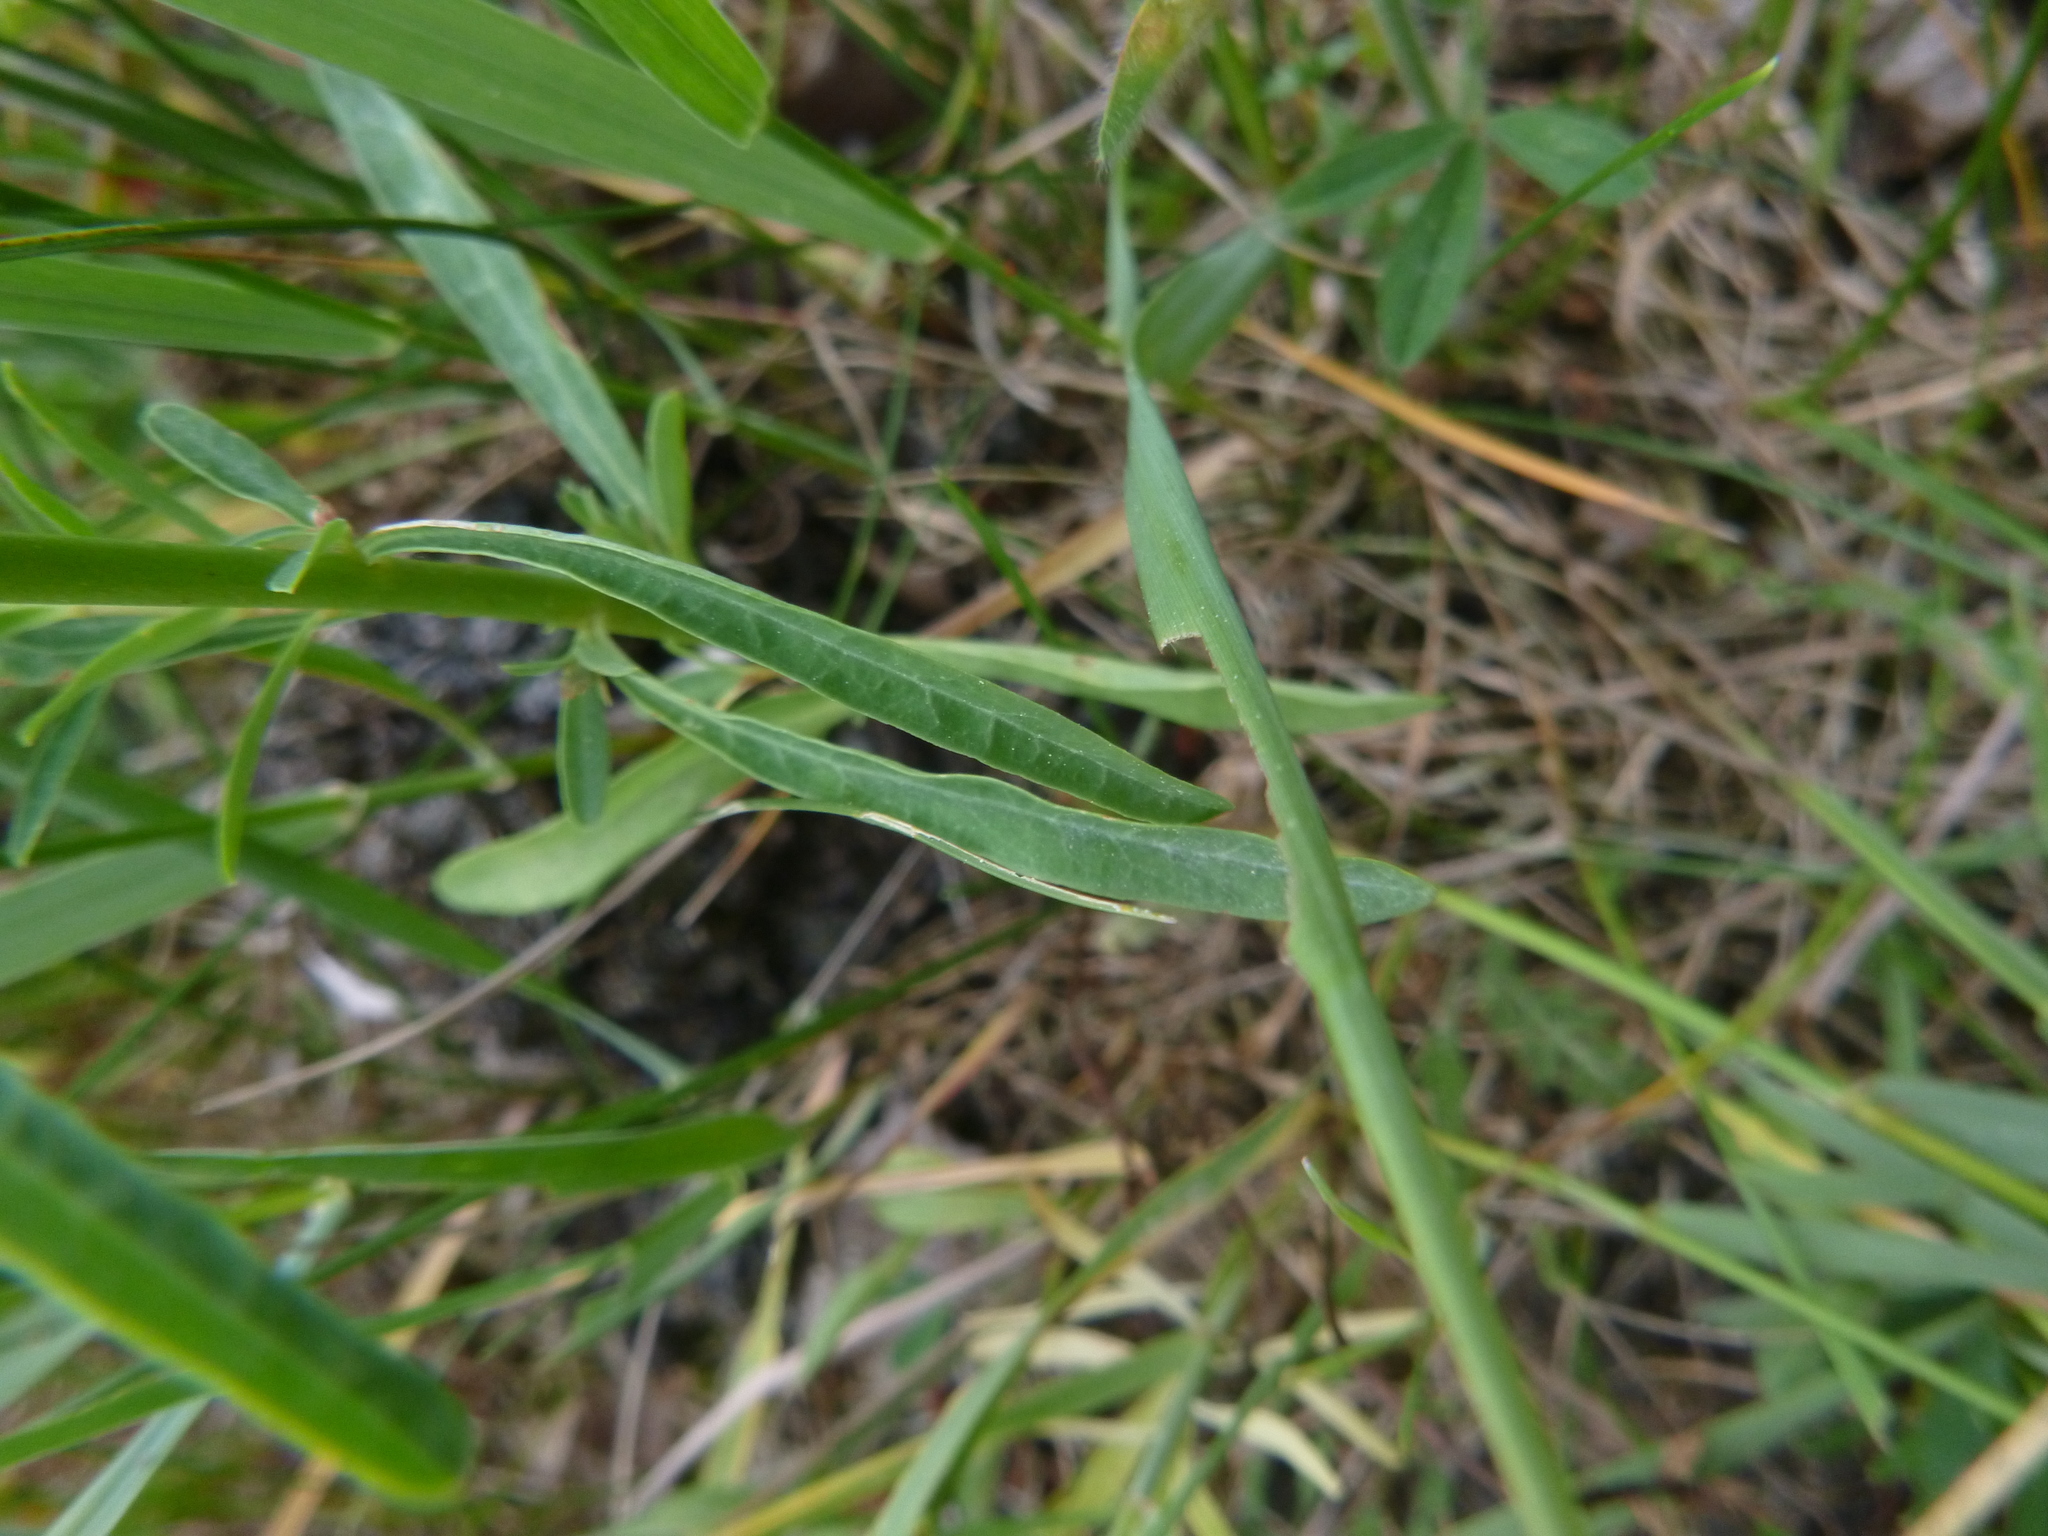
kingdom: Plantae
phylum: Tracheophyta
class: Magnoliopsida
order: Malpighiales
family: Euphorbiaceae
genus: Euphorbia
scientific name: Euphorbia esula
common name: Leafy spurge
